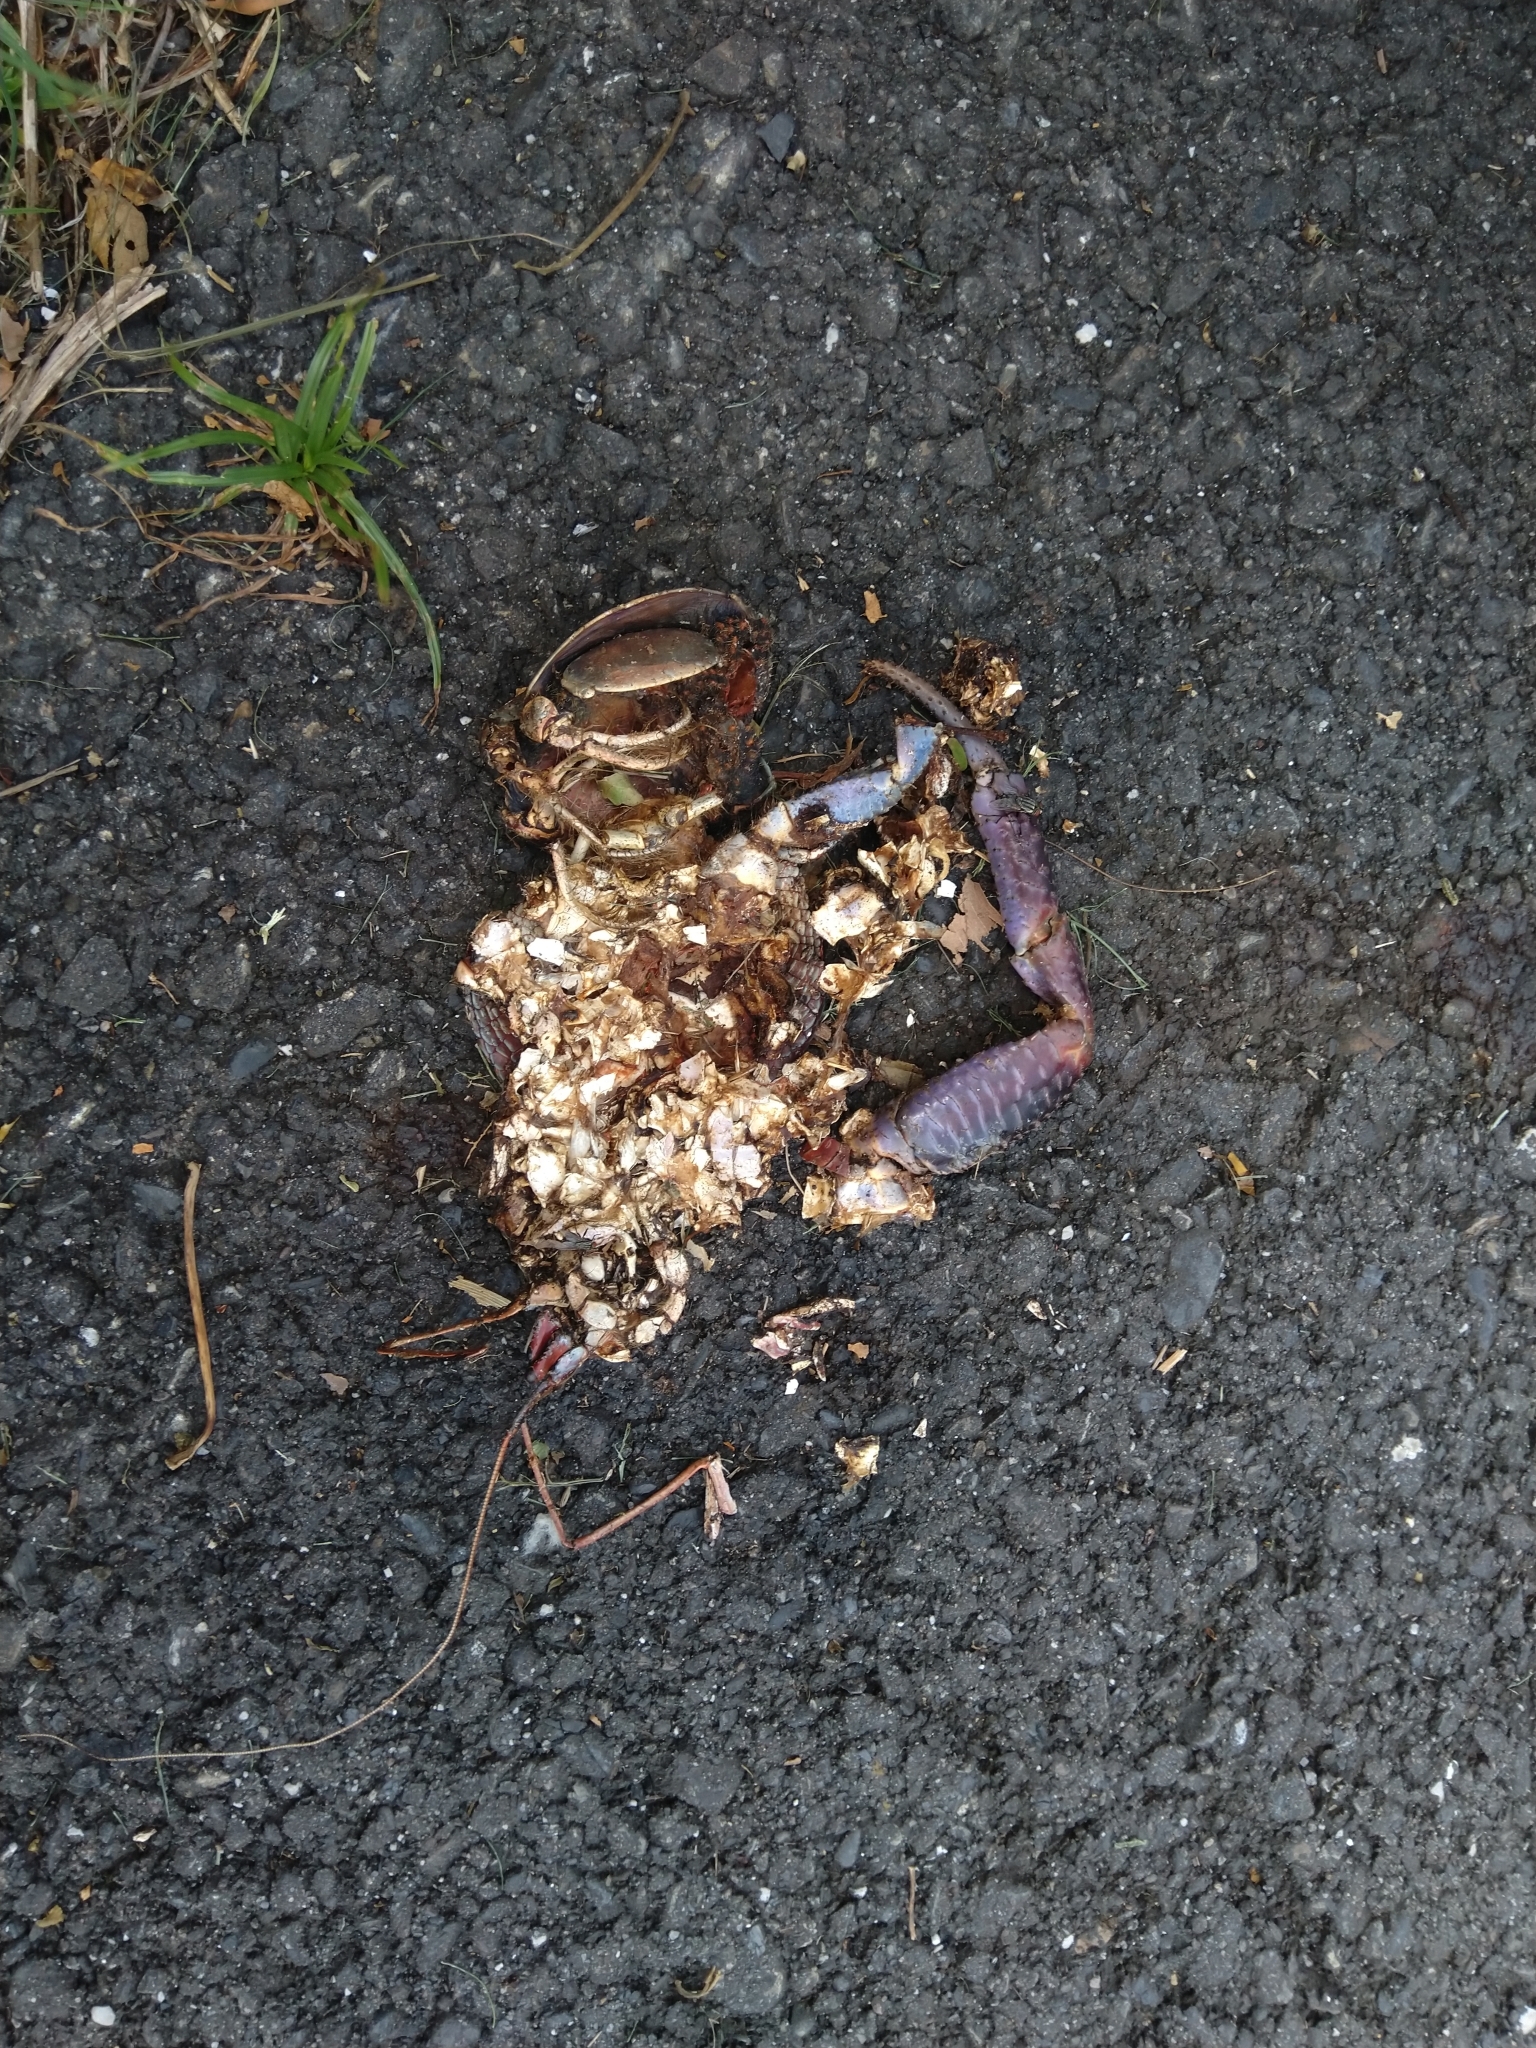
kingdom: Animalia
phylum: Arthropoda
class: Malacostraca
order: Decapoda
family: Coenobitidae
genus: Birgus
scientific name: Birgus latro
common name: Coconut crab
